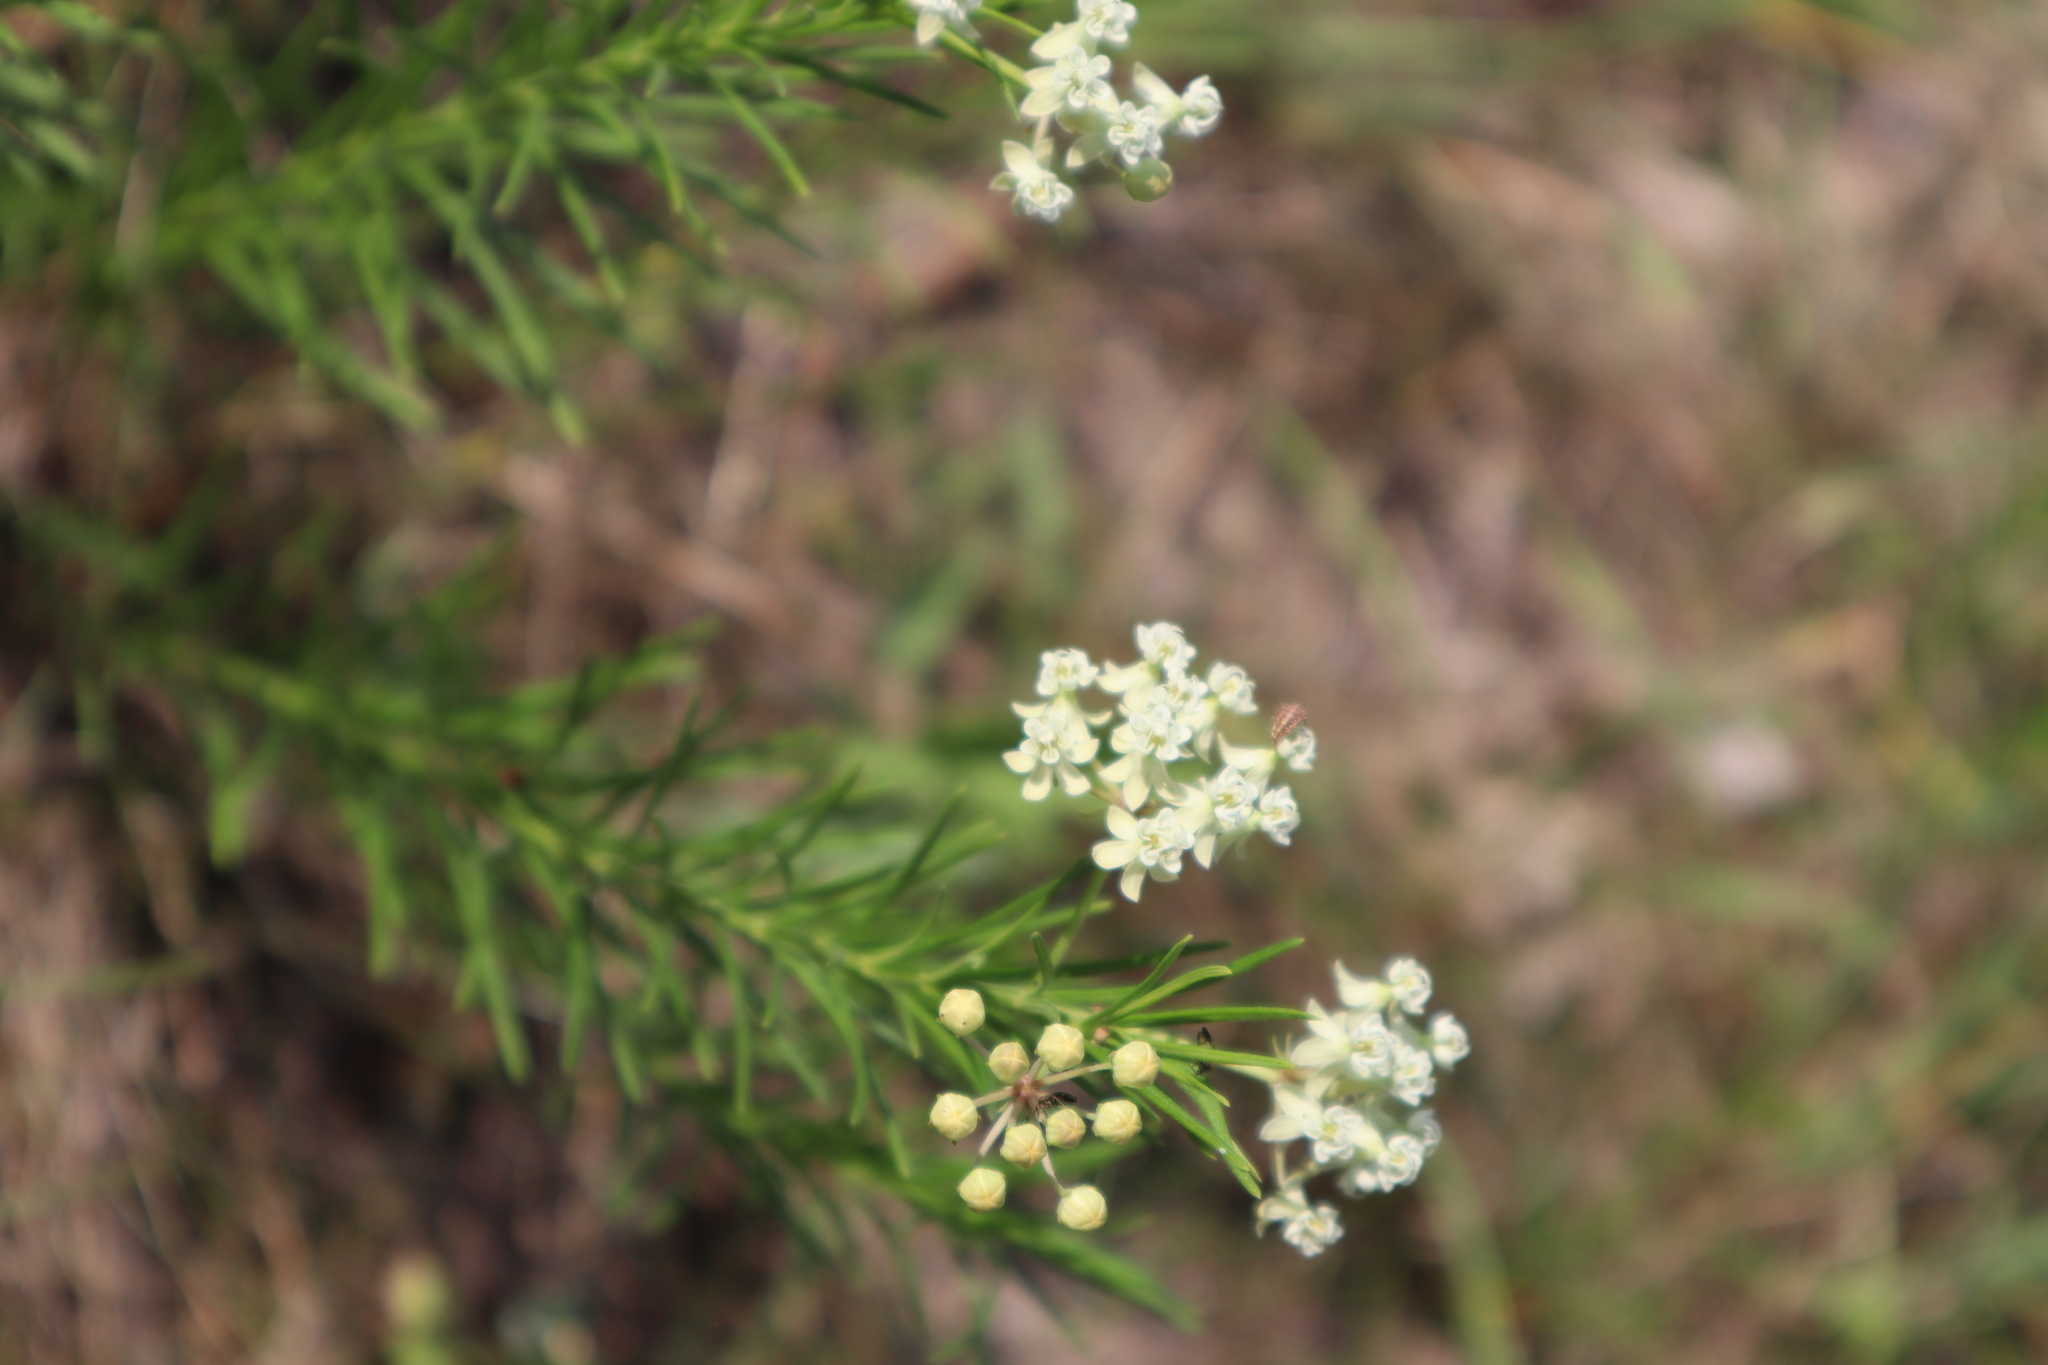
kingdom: Plantae
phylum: Tracheophyta
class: Magnoliopsida
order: Gentianales
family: Apocynaceae
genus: Asclepias
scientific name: Asclepias verticillata
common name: Eastern whorled milkweed
